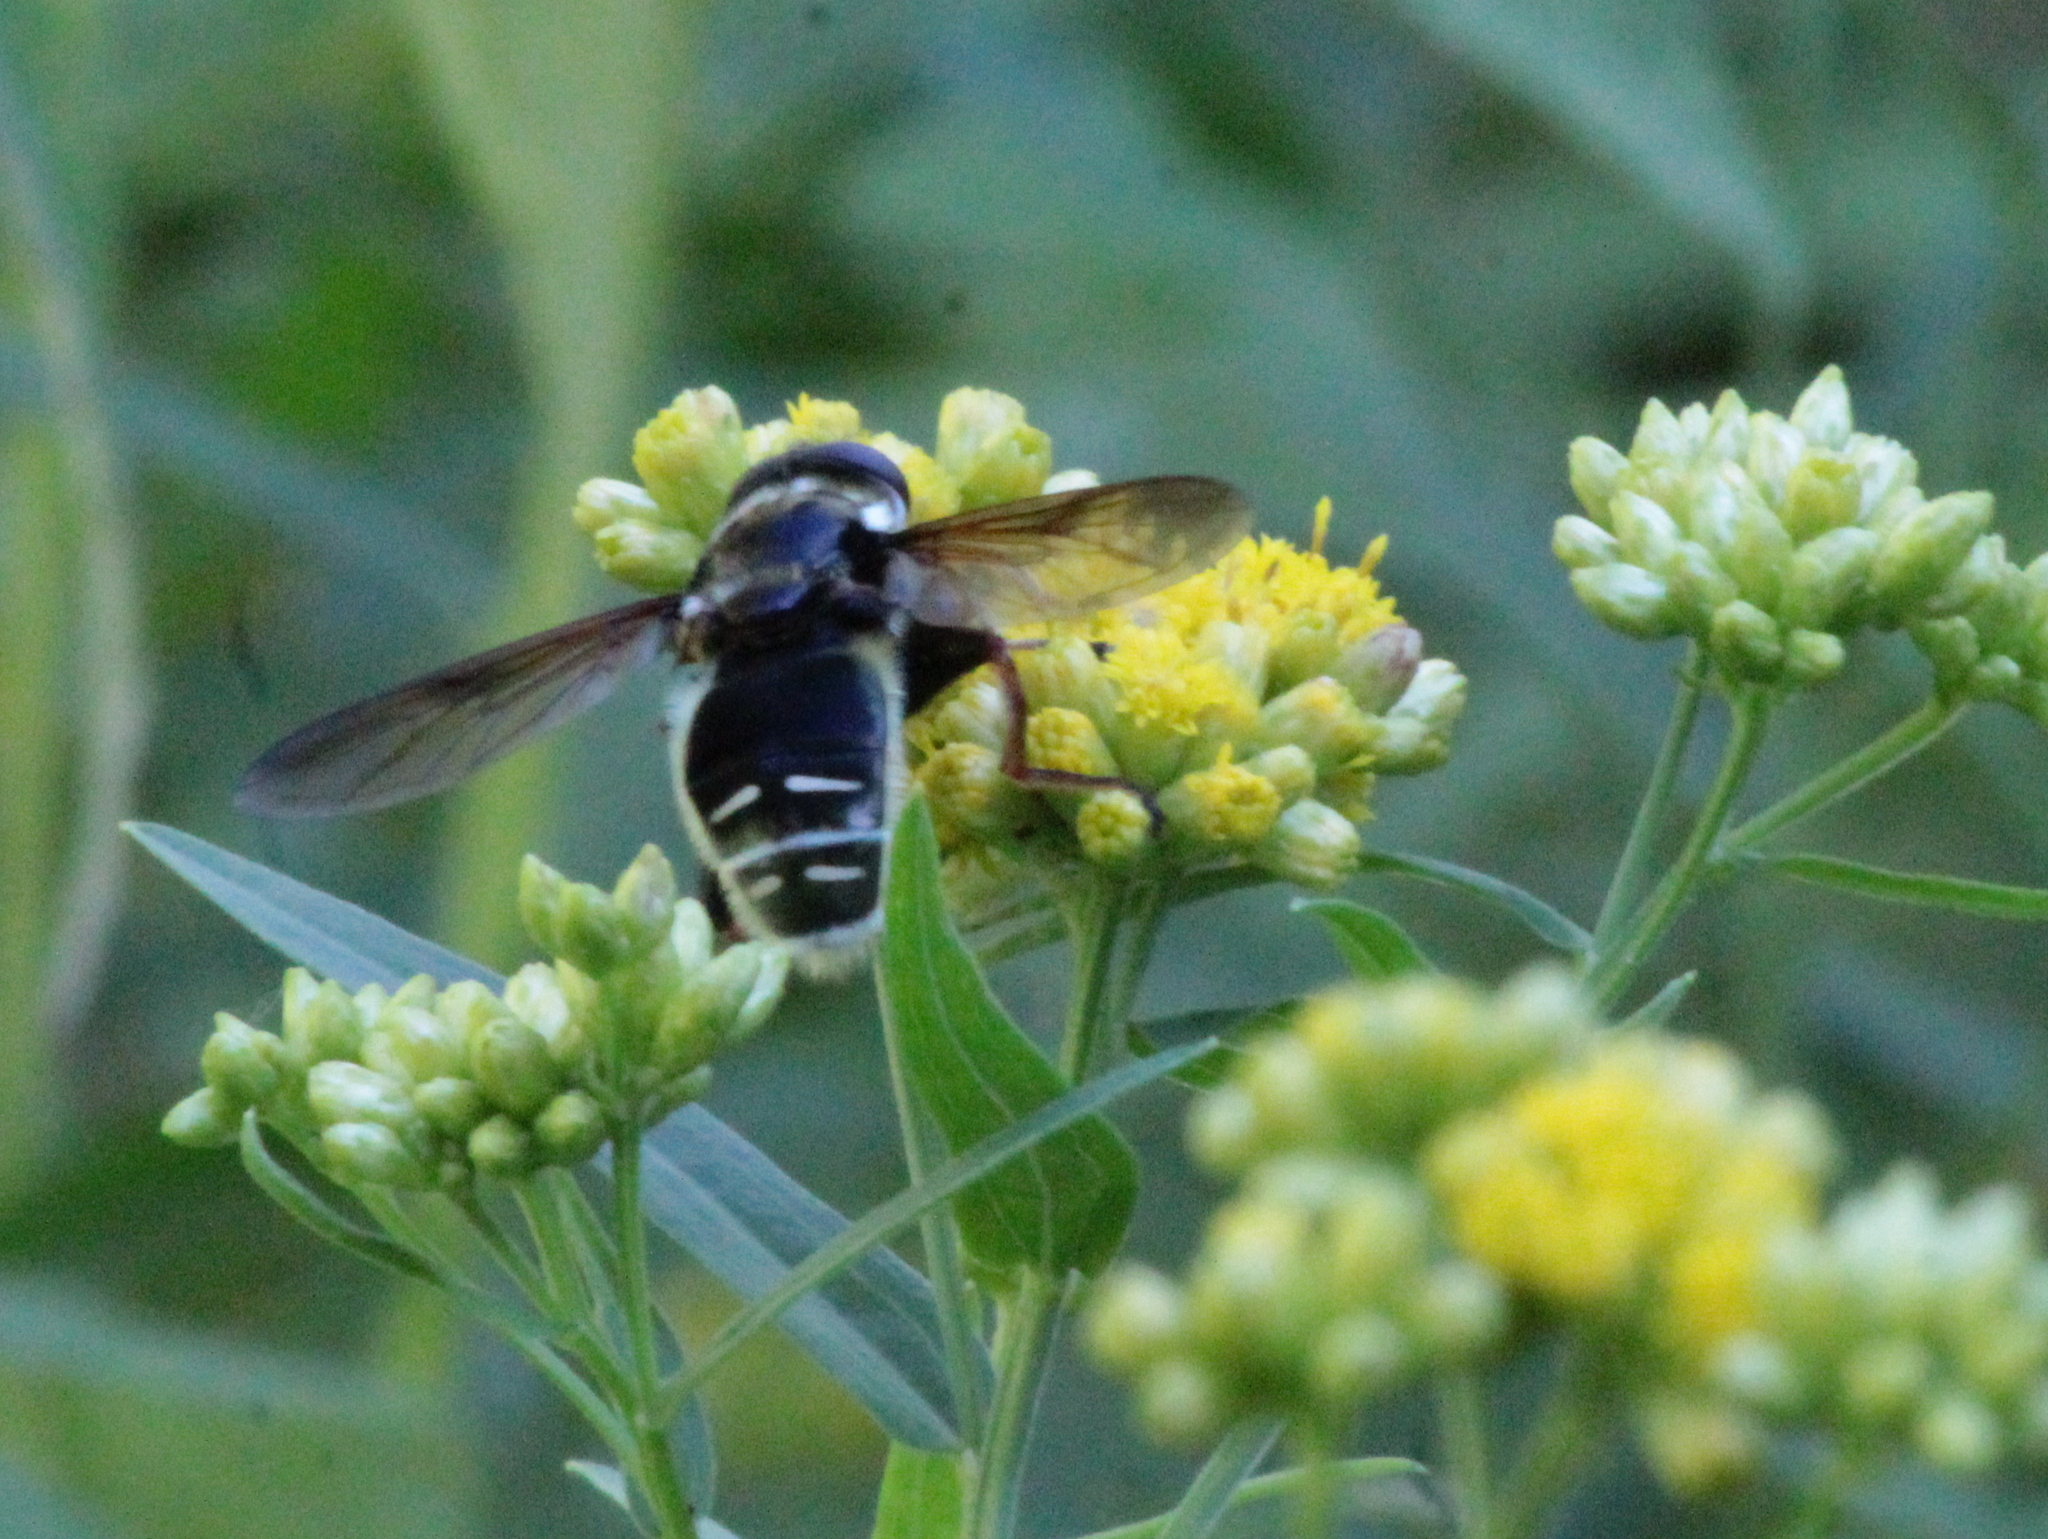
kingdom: Animalia
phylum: Arthropoda
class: Insecta
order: Diptera
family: Syrphidae
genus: Sericomyia
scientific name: Sericomyia militaris
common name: Narrow-banded pond fly
